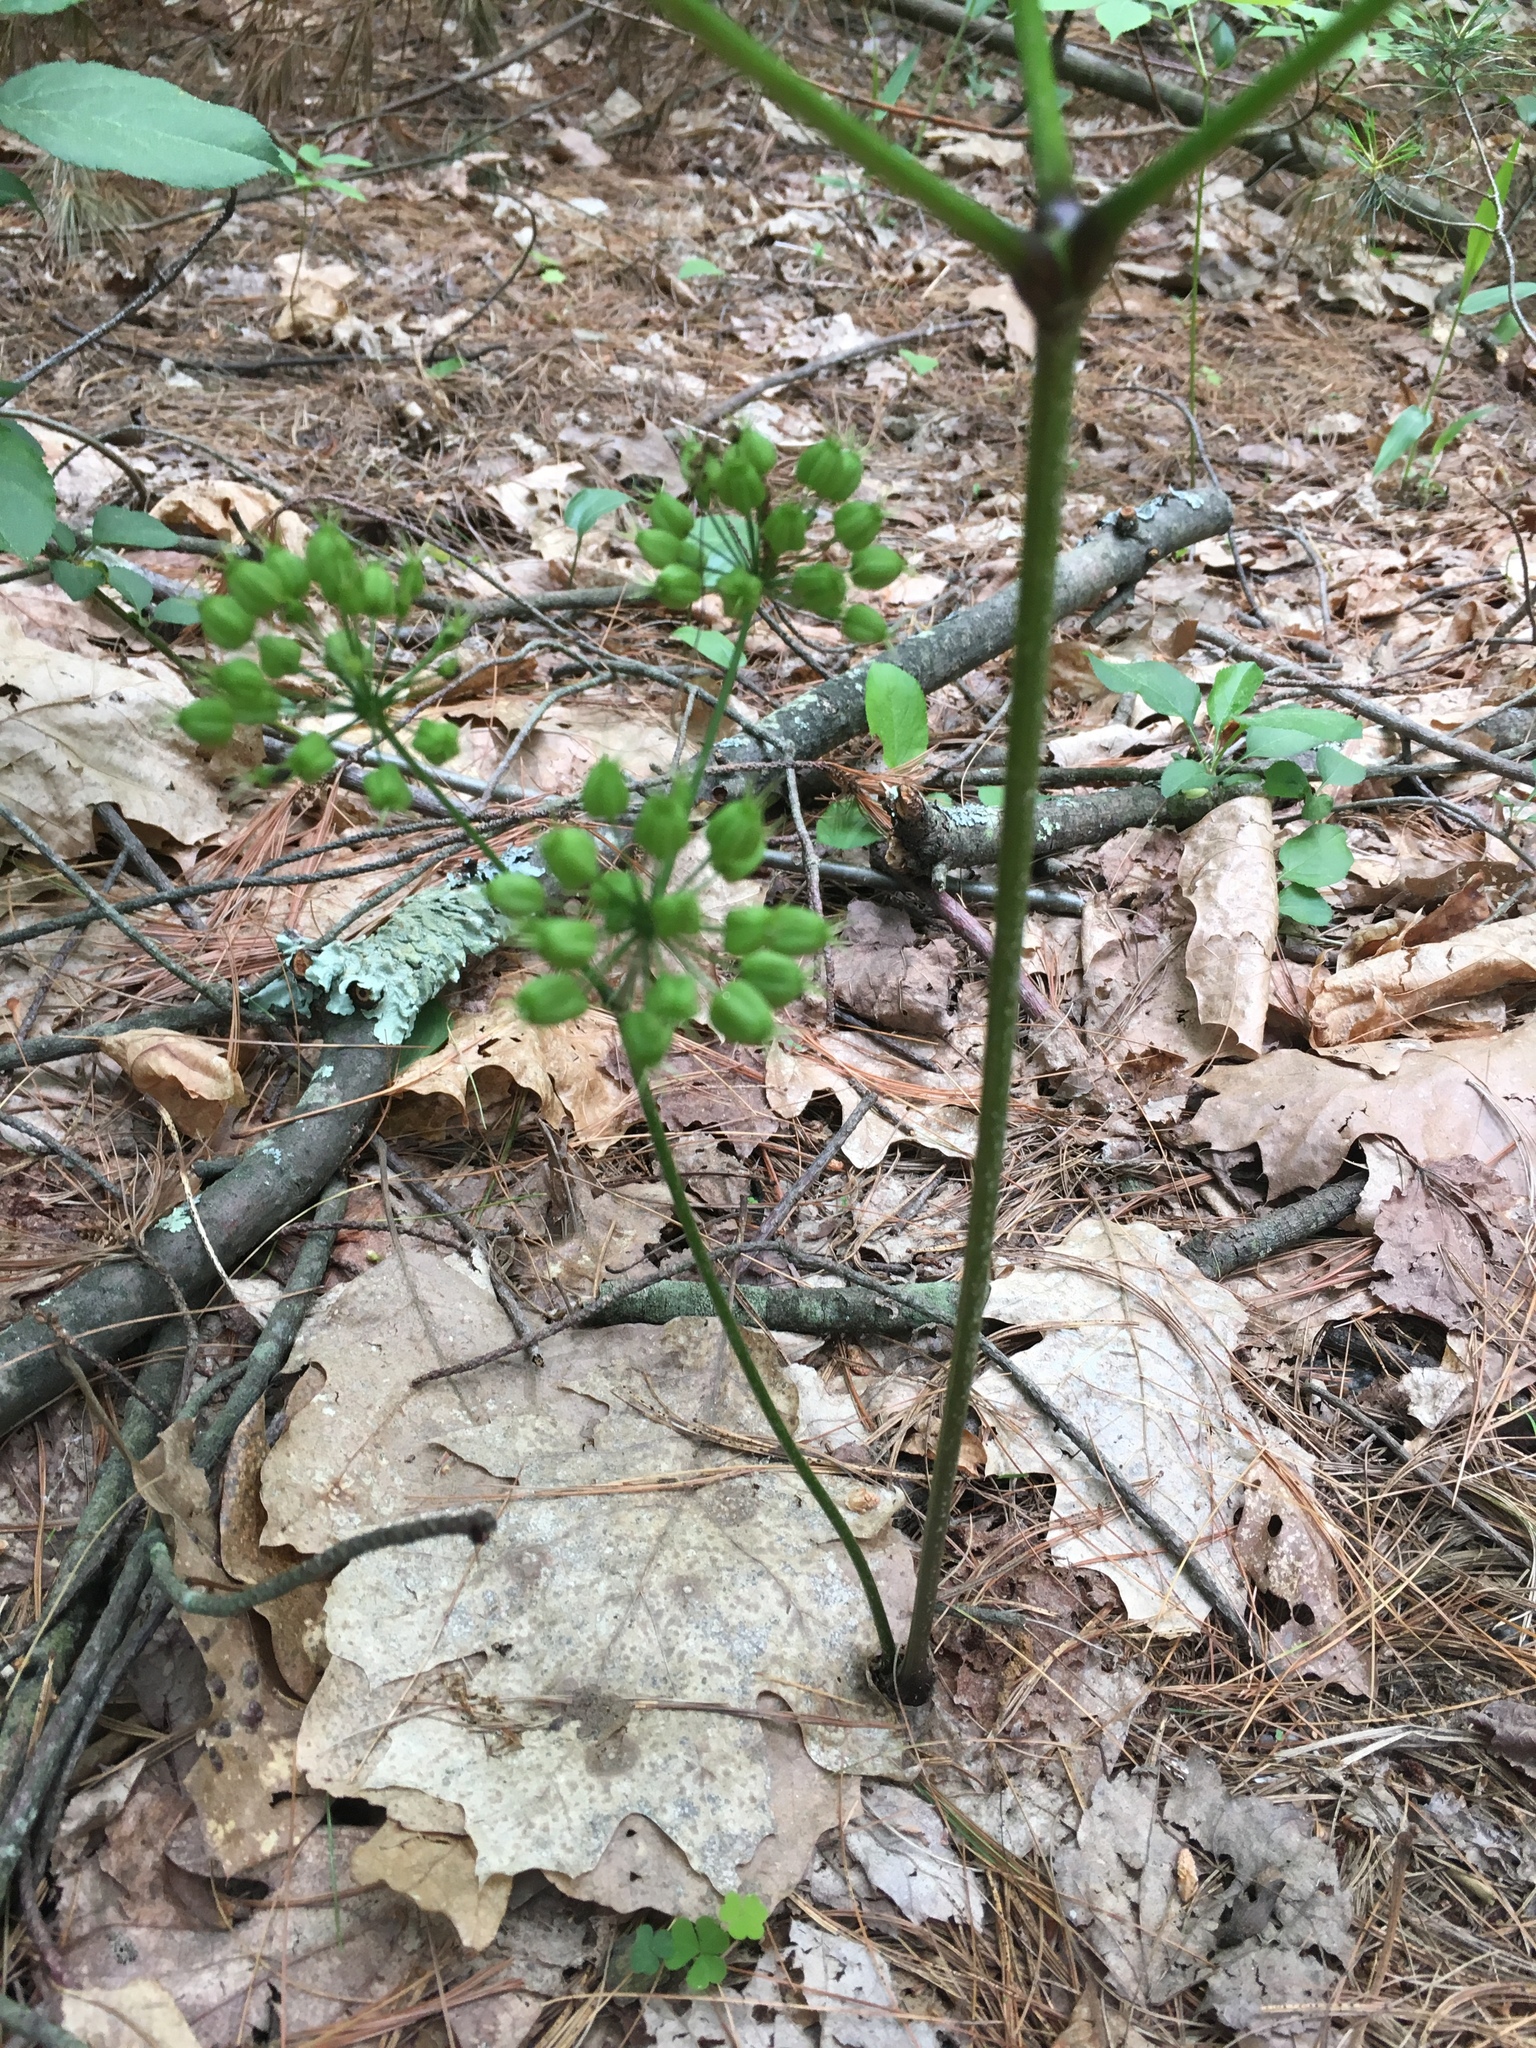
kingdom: Plantae
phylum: Tracheophyta
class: Magnoliopsida
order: Apiales
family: Araliaceae
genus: Aralia
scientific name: Aralia nudicaulis
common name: Wild sarsaparilla
